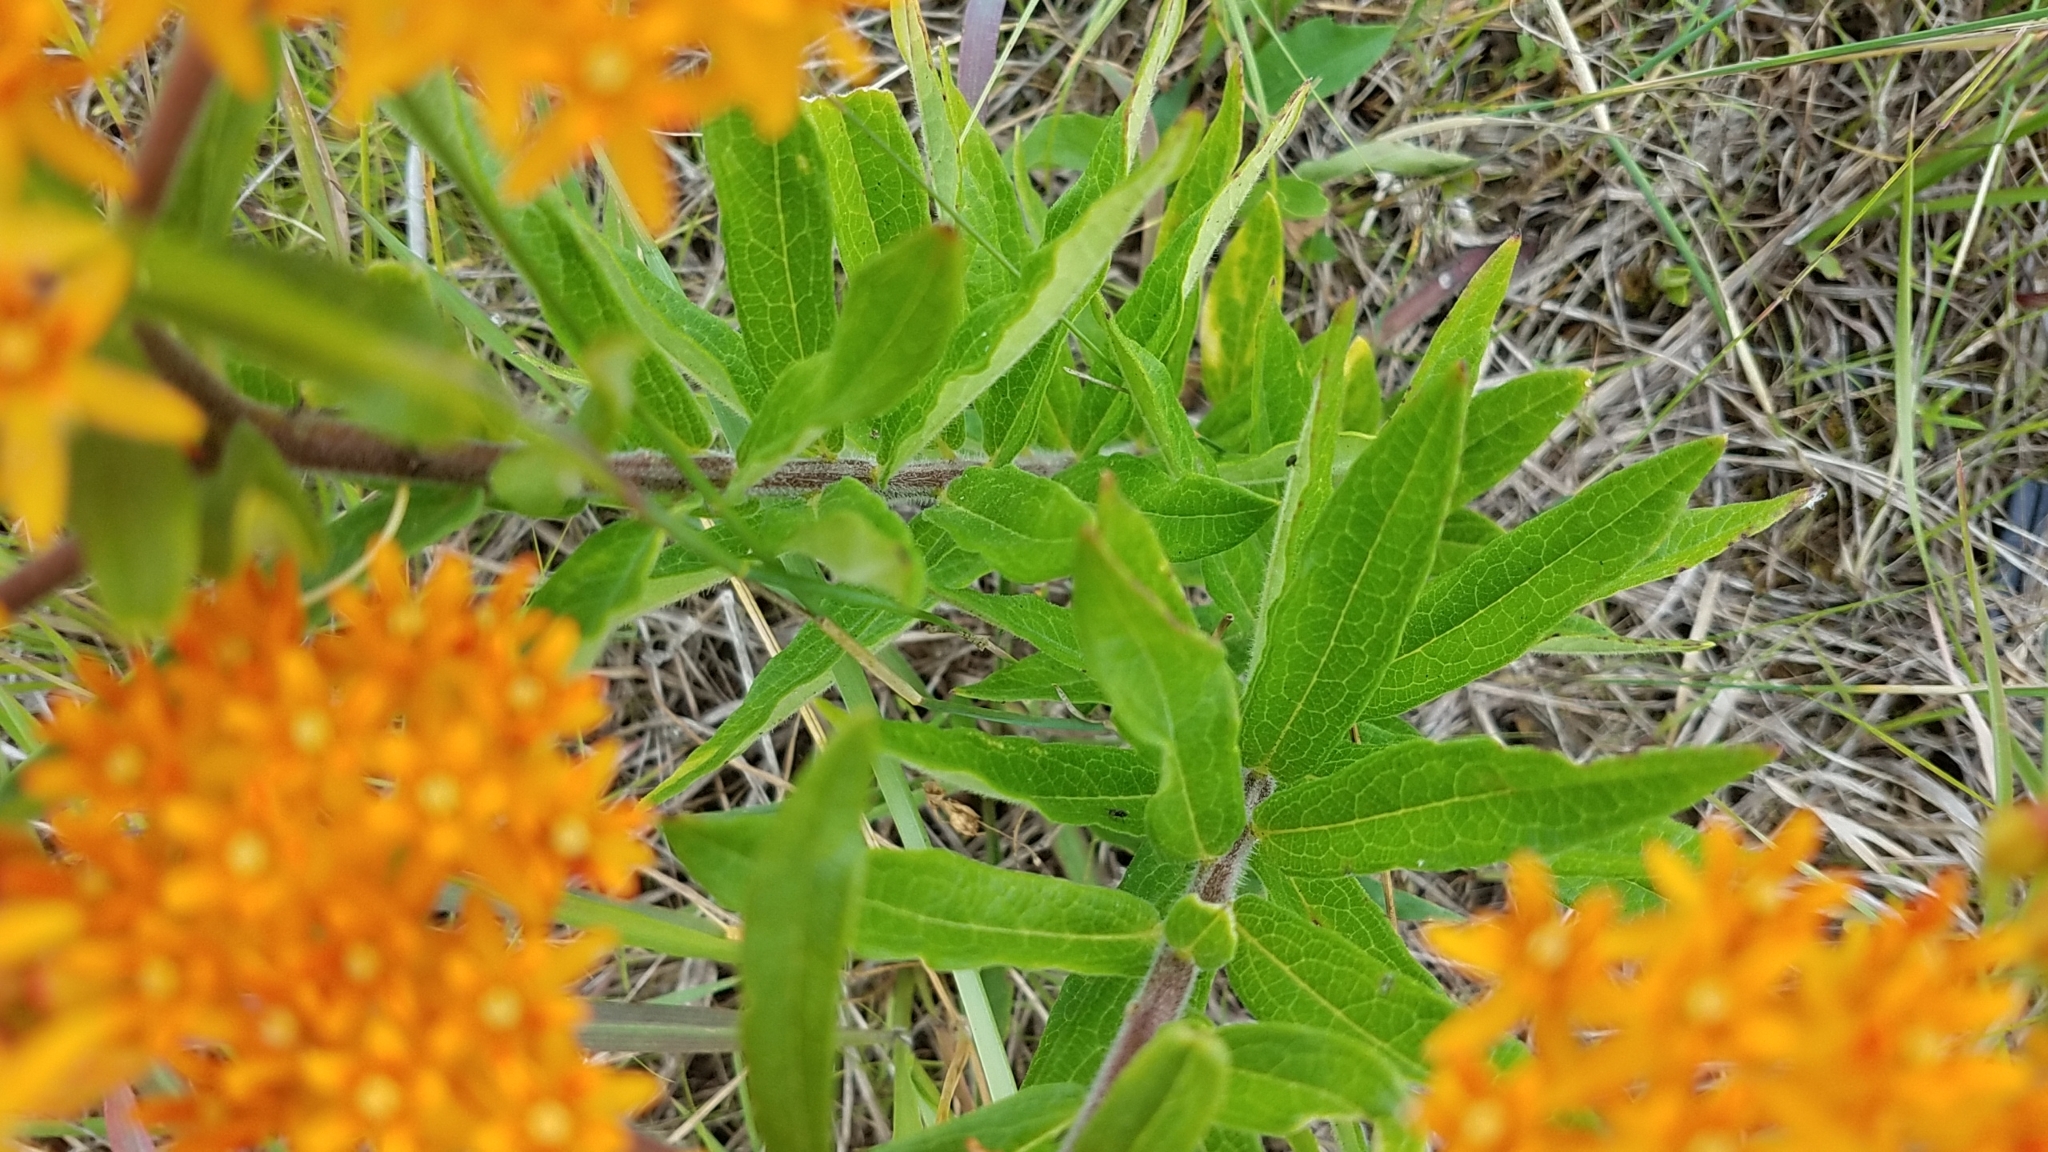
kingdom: Plantae
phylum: Tracheophyta
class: Magnoliopsida
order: Gentianales
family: Apocynaceae
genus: Asclepias
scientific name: Asclepias tuberosa
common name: Butterfly milkweed
